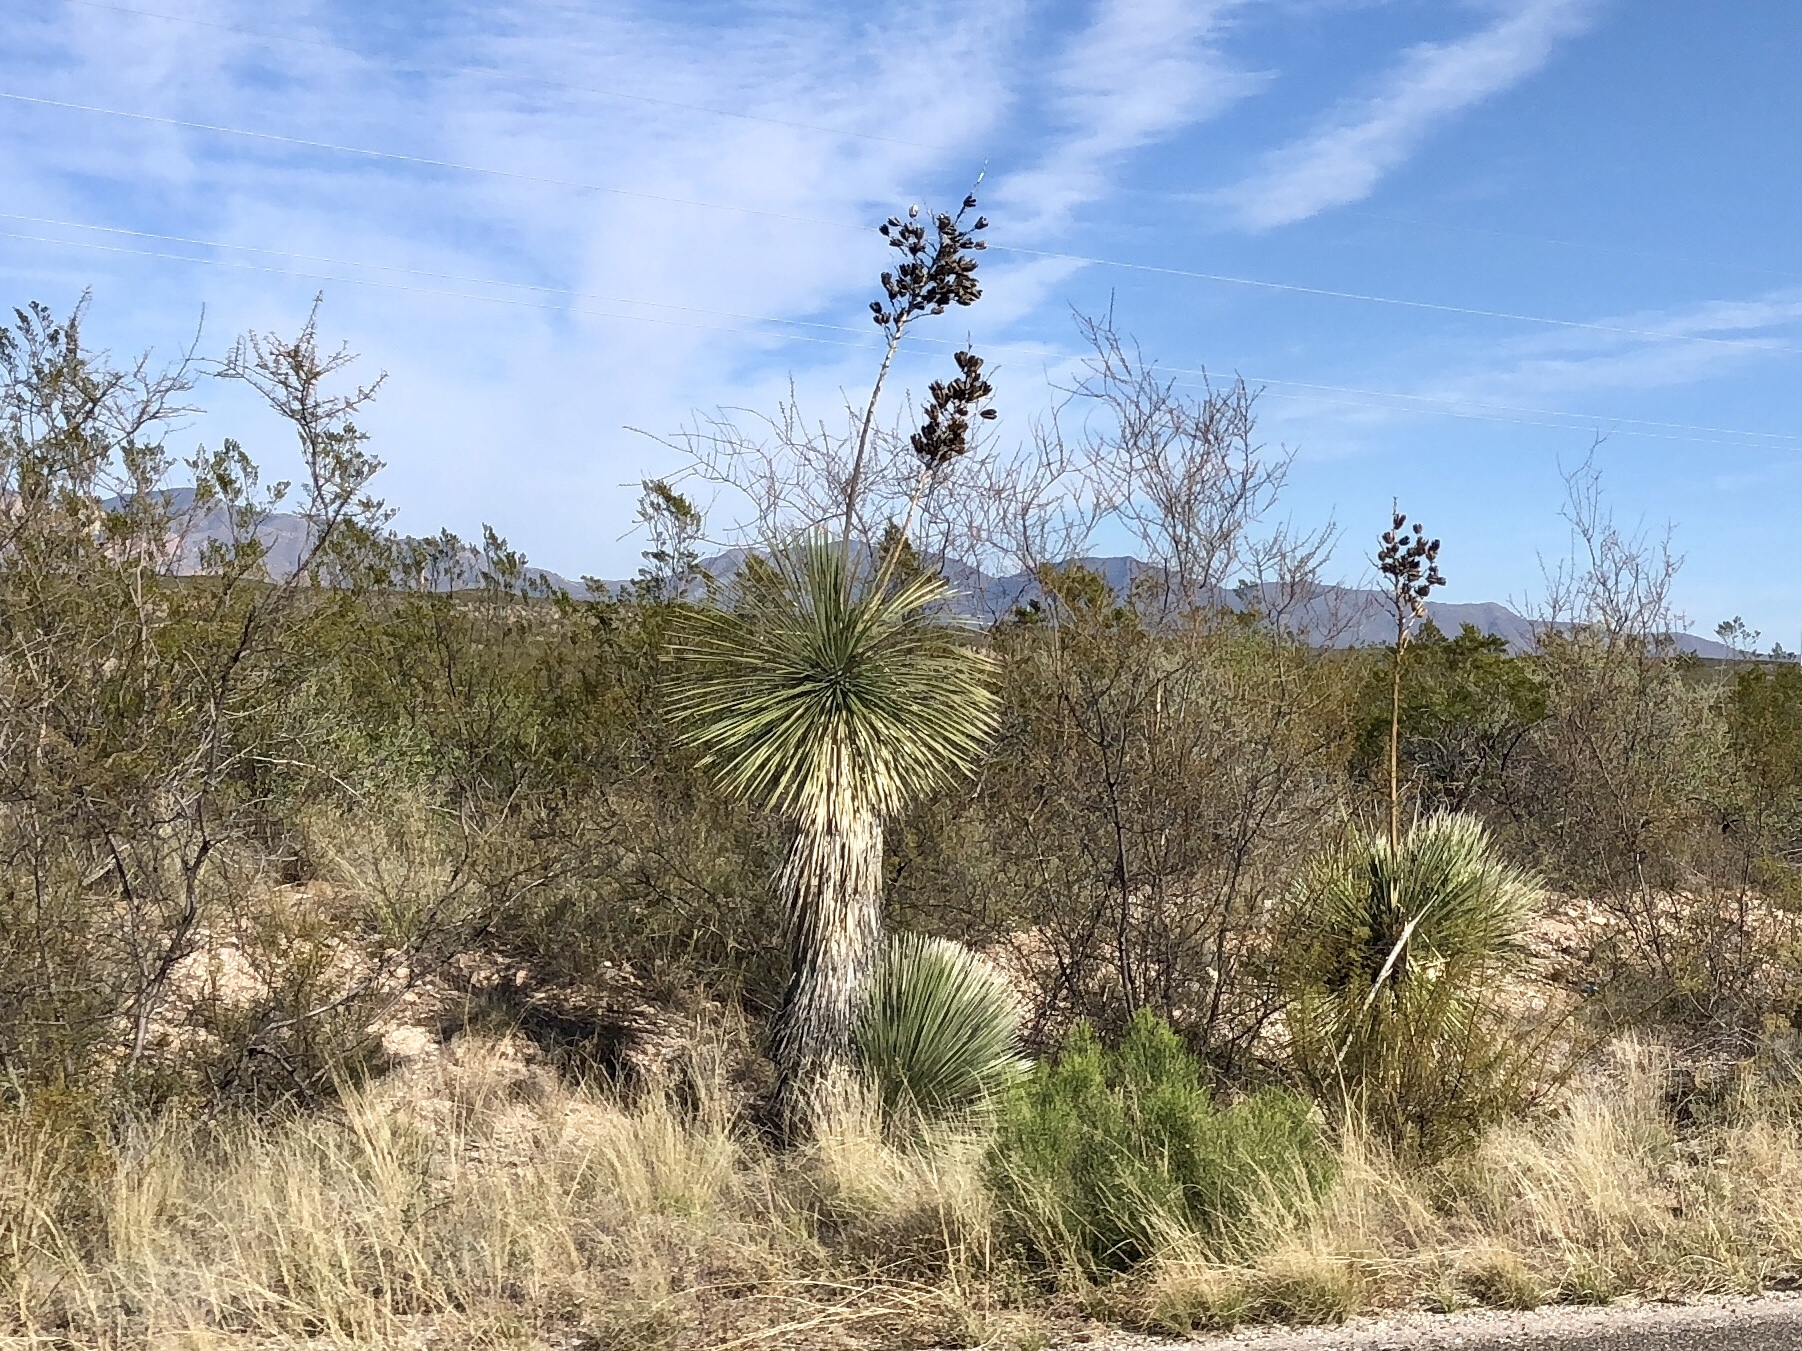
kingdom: Plantae
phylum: Tracheophyta
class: Liliopsida
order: Asparagales
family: Asparagaceae
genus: Yucca
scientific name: Yucca elata
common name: Palmella
